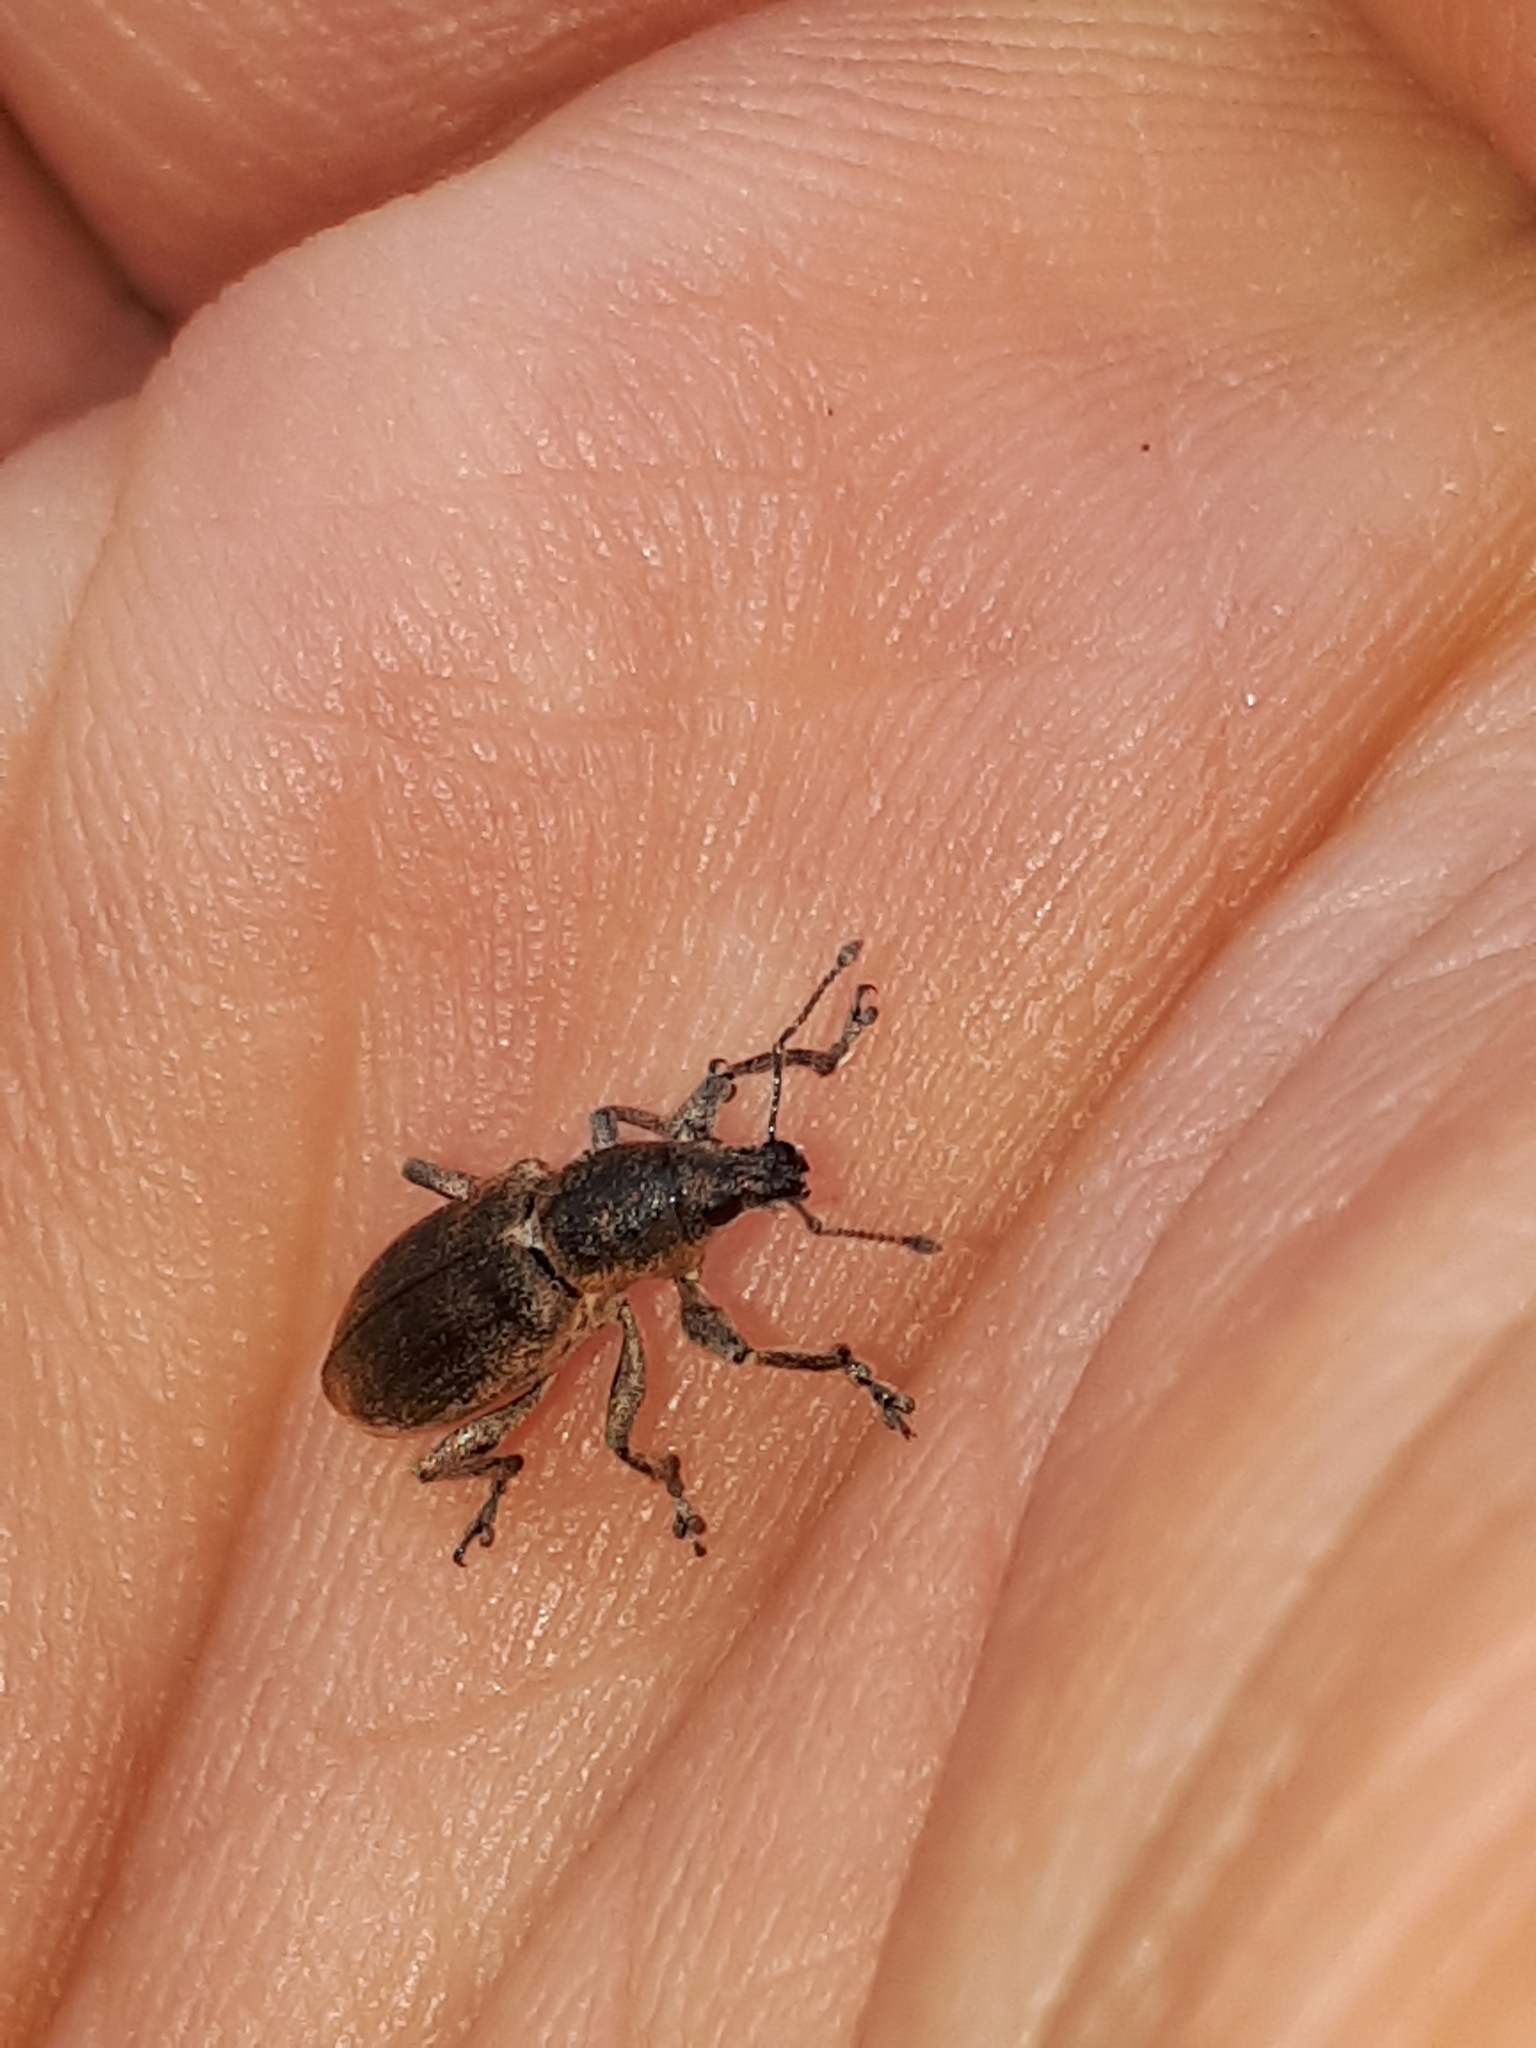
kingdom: Animalia
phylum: Arthropoda
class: Insecta
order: Coleoptera
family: Curculionidae
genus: Tanymecus
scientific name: Tanymecus palliatus
